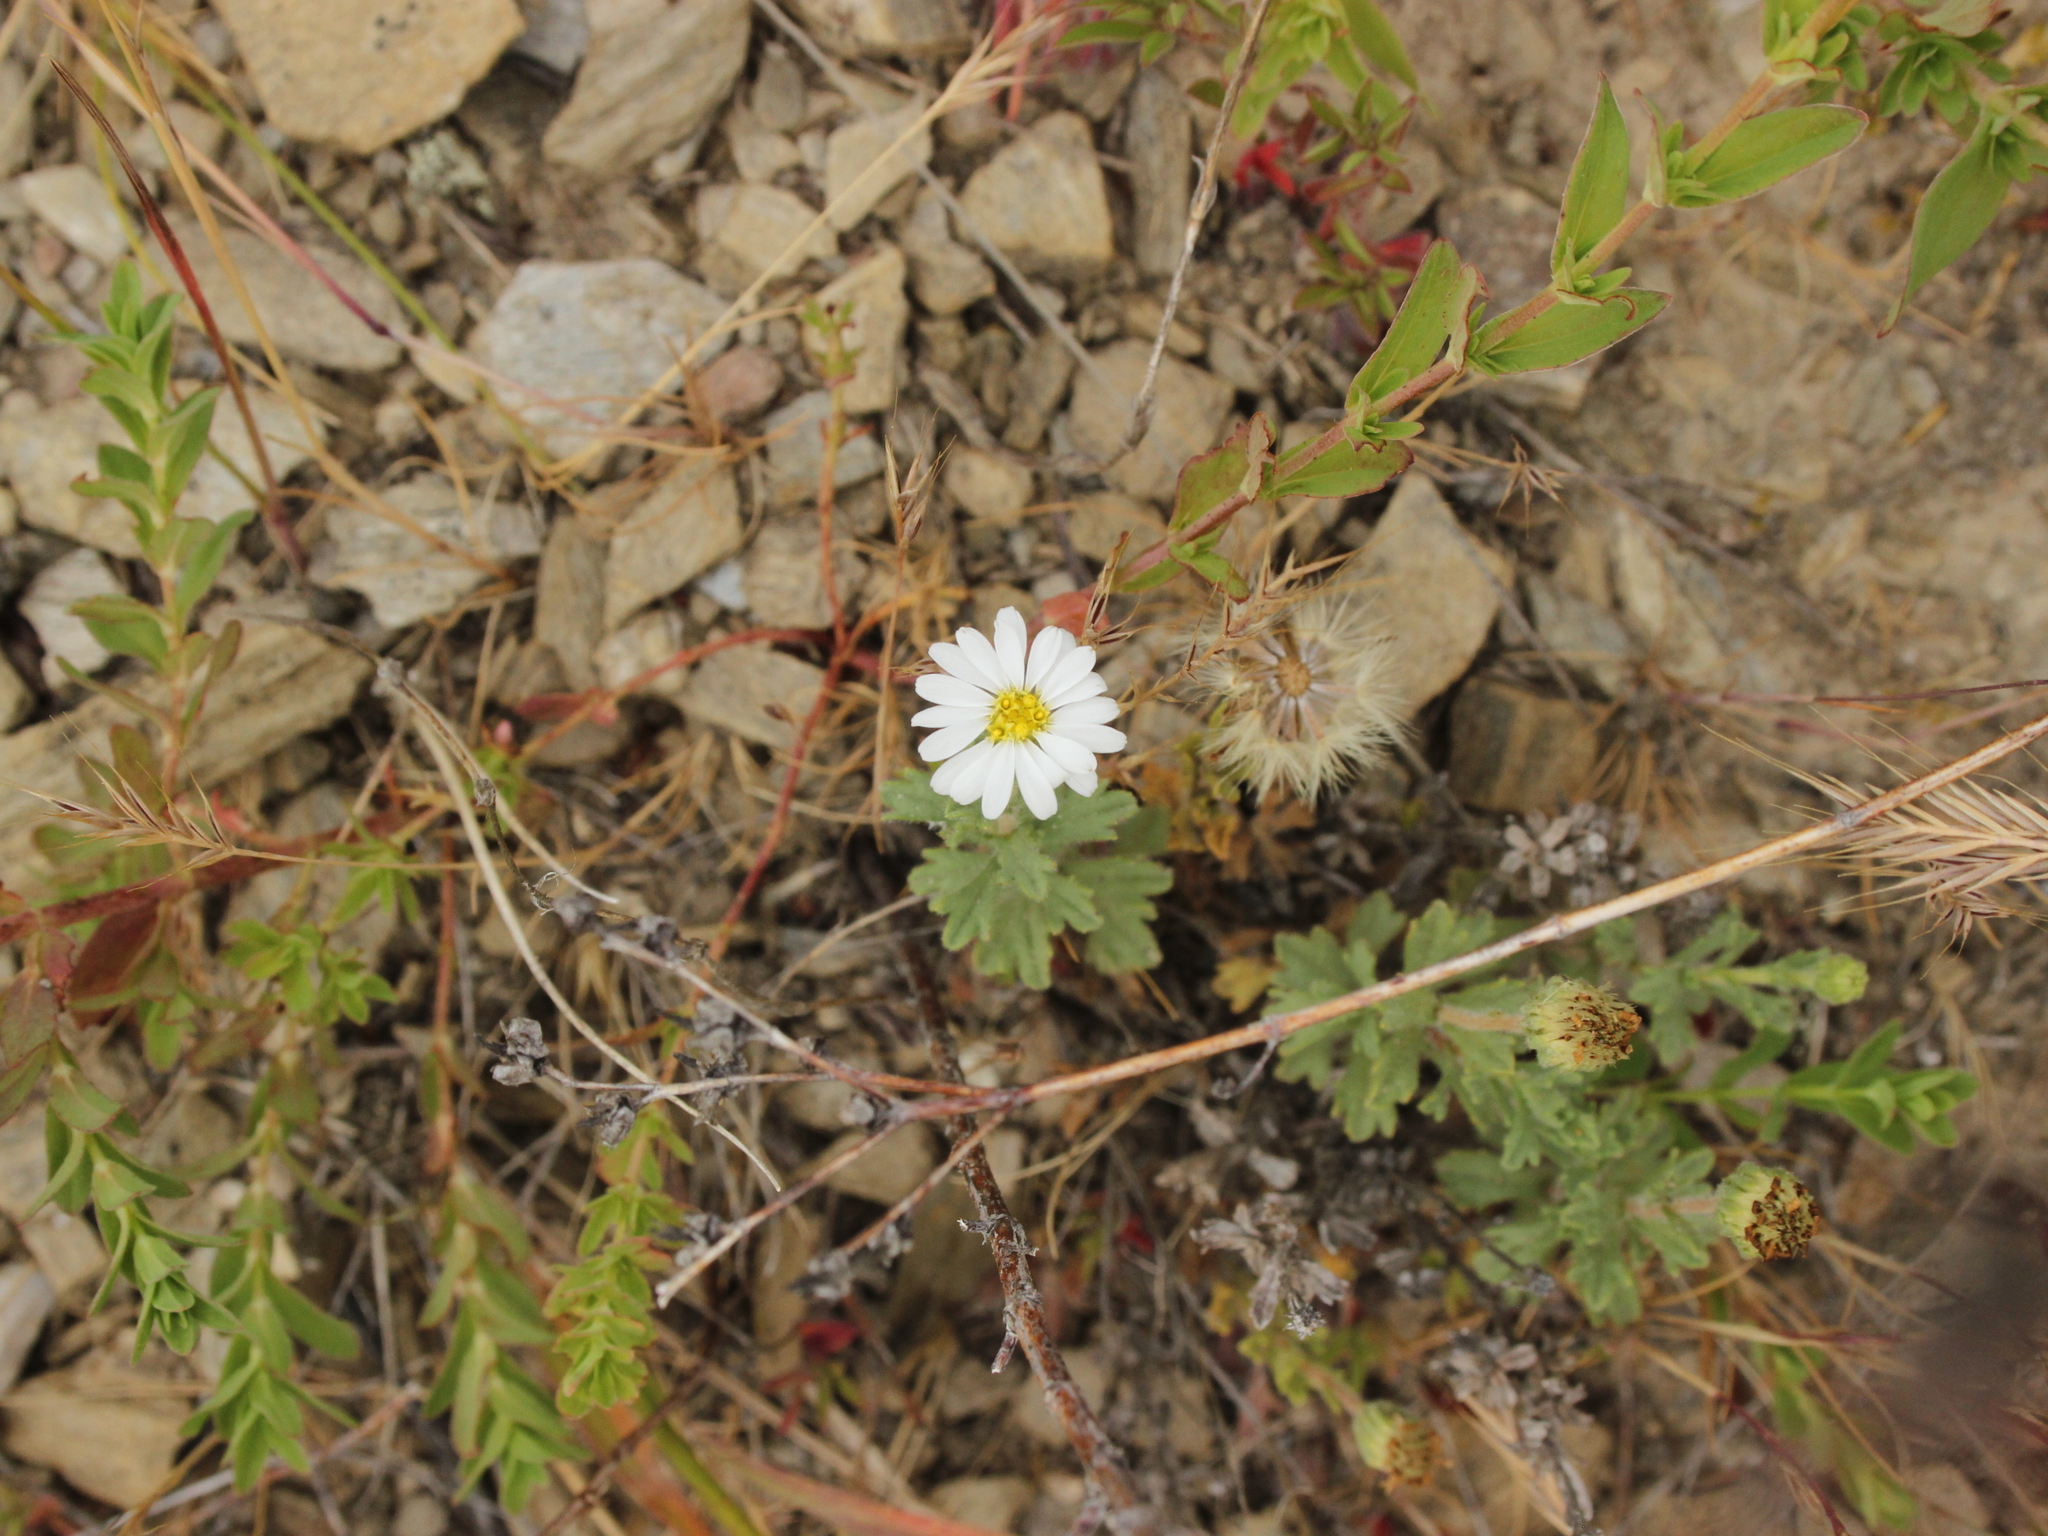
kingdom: Plantae
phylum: Tracheophyta
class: Magnoliopsida
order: Asterales
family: Asteraceae
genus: Vittadinia
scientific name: Vittadinia australis
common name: White fuzzweed
